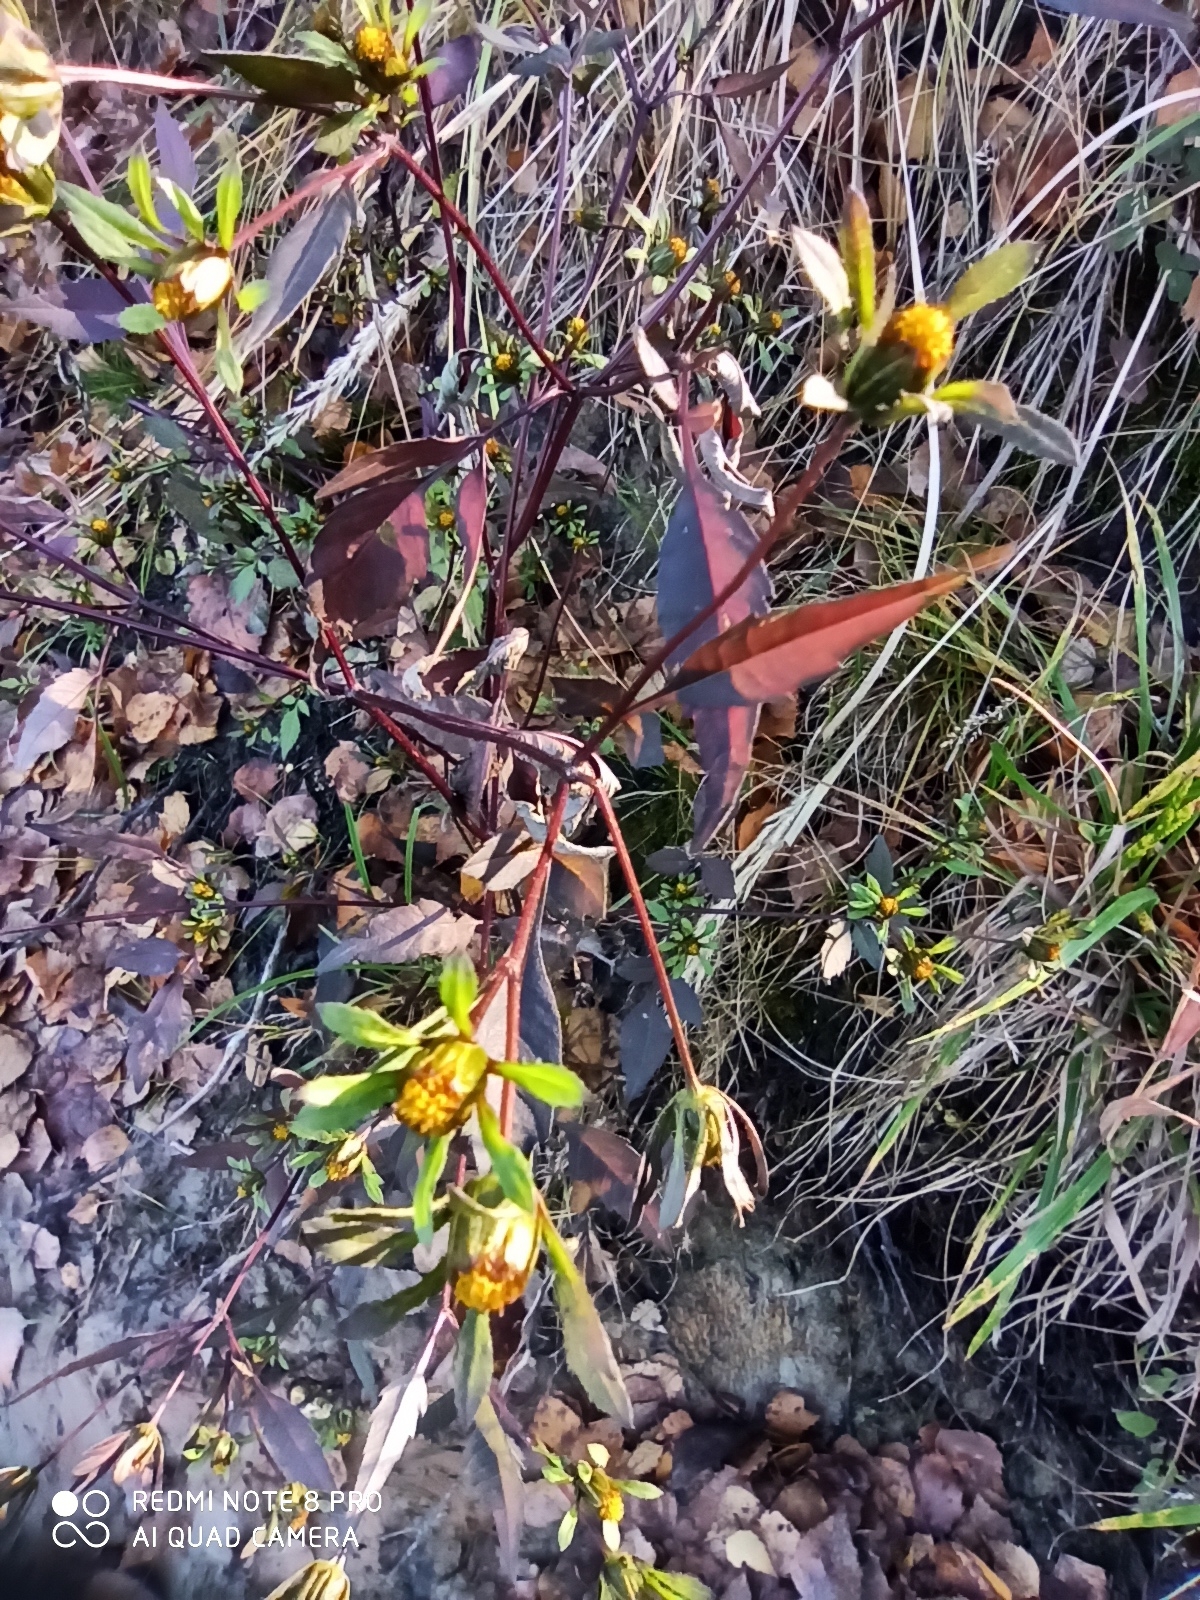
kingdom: Plantae
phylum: Tracheophyta
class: Magnoliopsida
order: Asterales
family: Asteraceae
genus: Bidens
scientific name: Bidens frondosa
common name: Beggarticks
